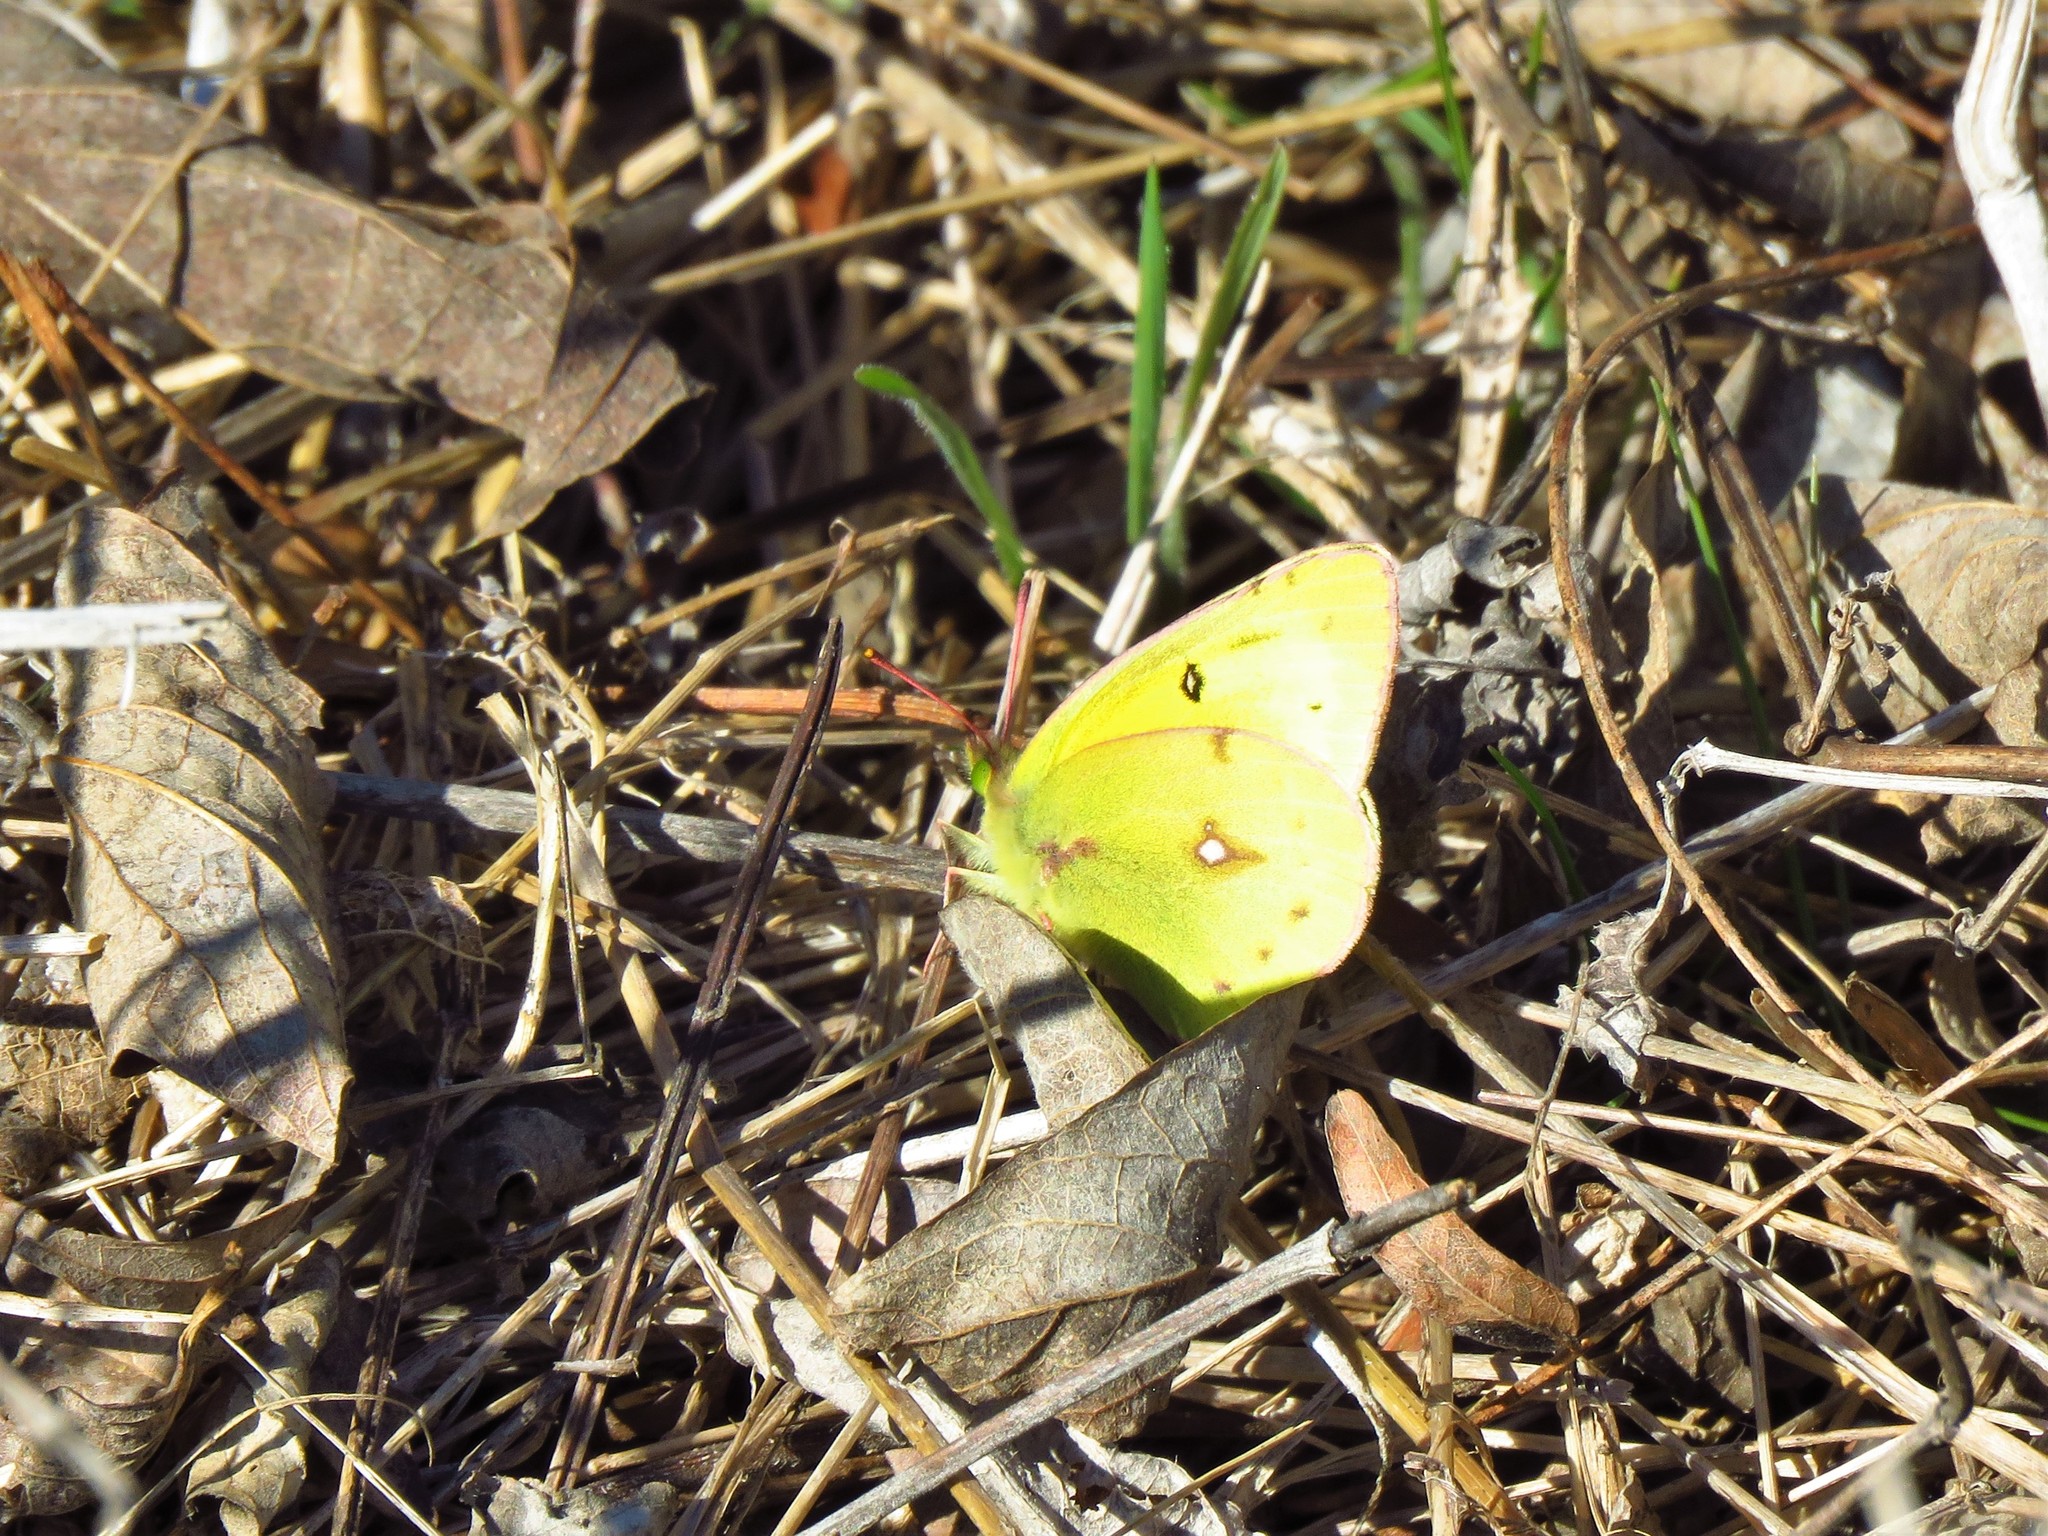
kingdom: Animalia
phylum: Arthropoda
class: Insecta
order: Lepidoptera
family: Pieridae
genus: Colias
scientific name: Colias eurytheme
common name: Alfalfa butterfly
